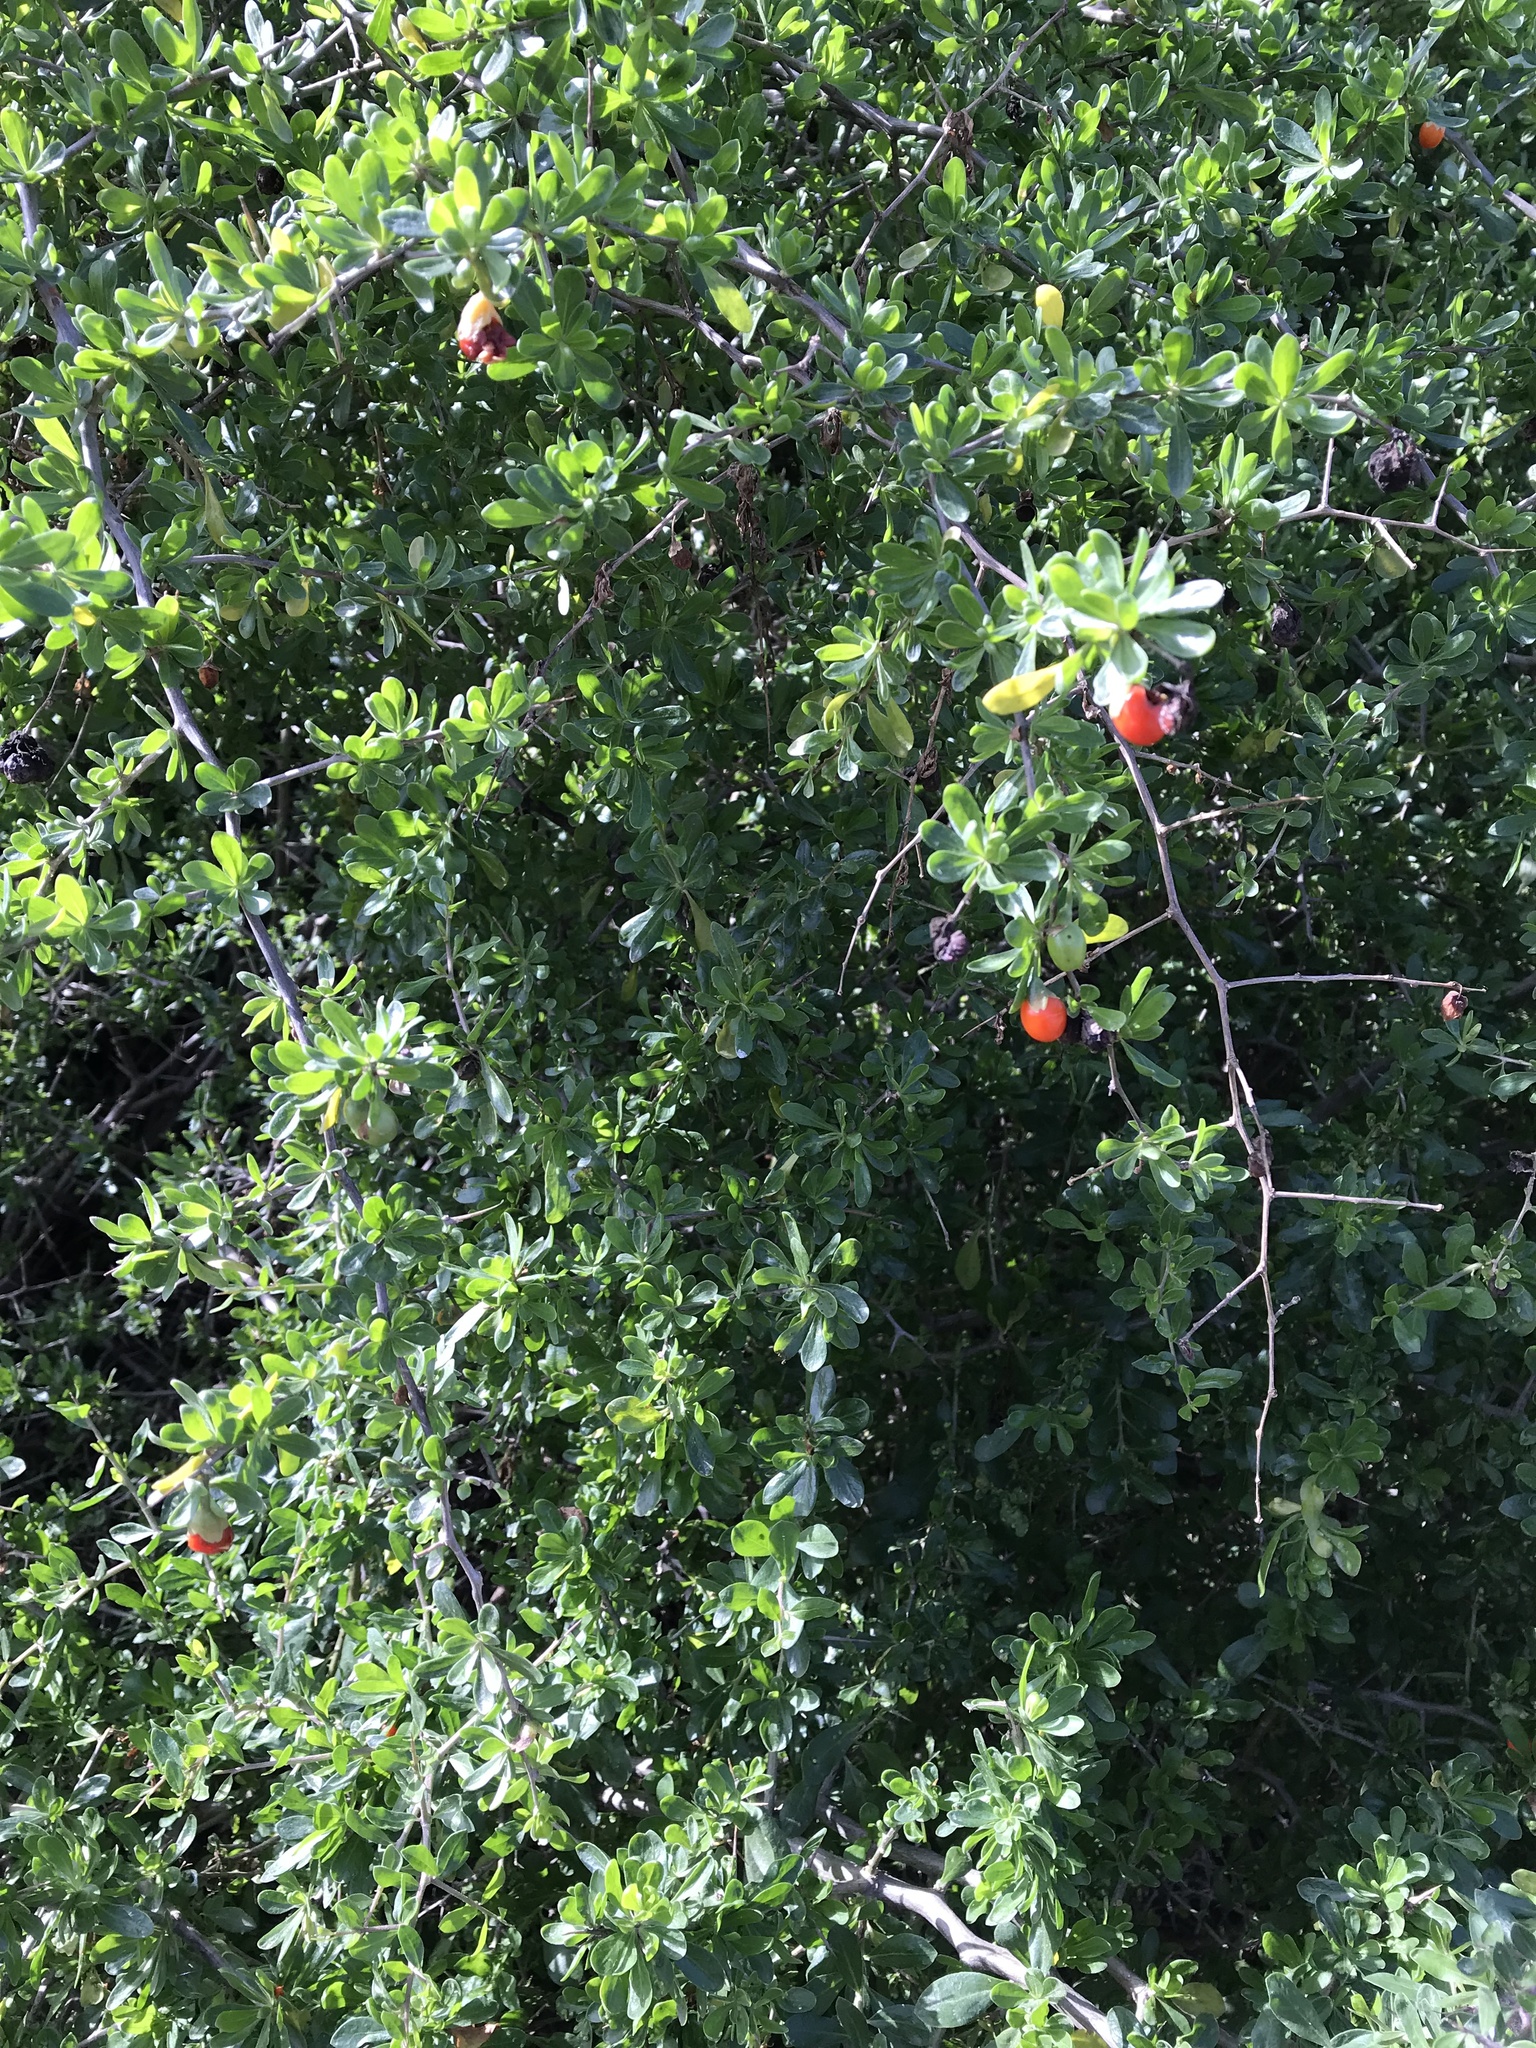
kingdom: Plantae
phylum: Tracheophyta
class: Magnoliopsida
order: Solanales
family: Solanaceae
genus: Lycium
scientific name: Lycium ferocissimum
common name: African boxthorn
